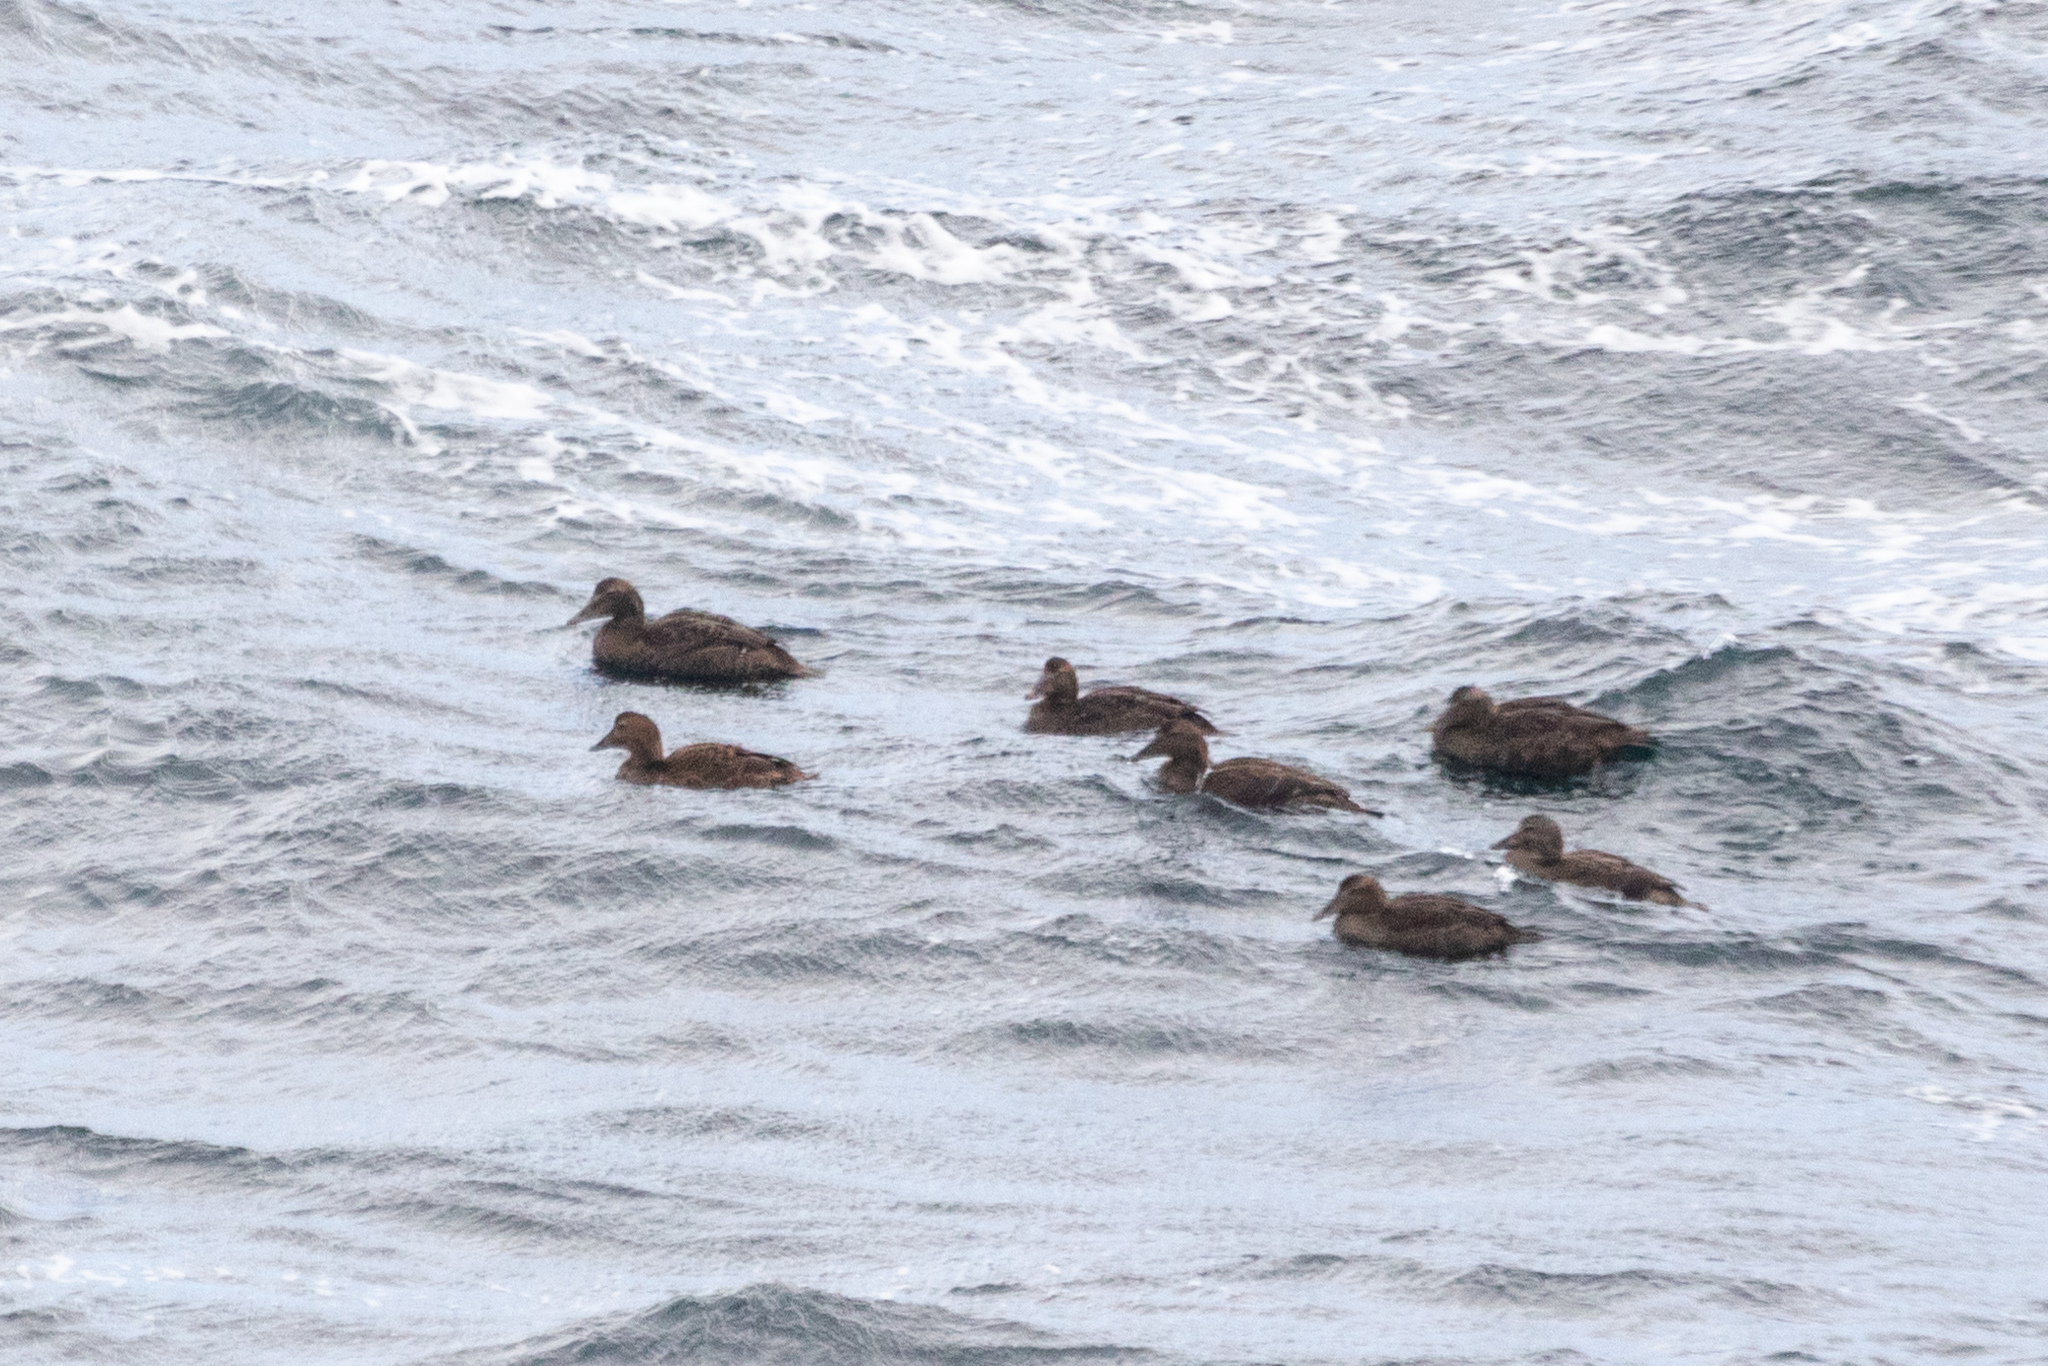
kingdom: Animalia
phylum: Chordata
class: Aves
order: Anseriformes
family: Anatidae
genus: Somateria
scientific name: Somateria mollissima
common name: Common eider
